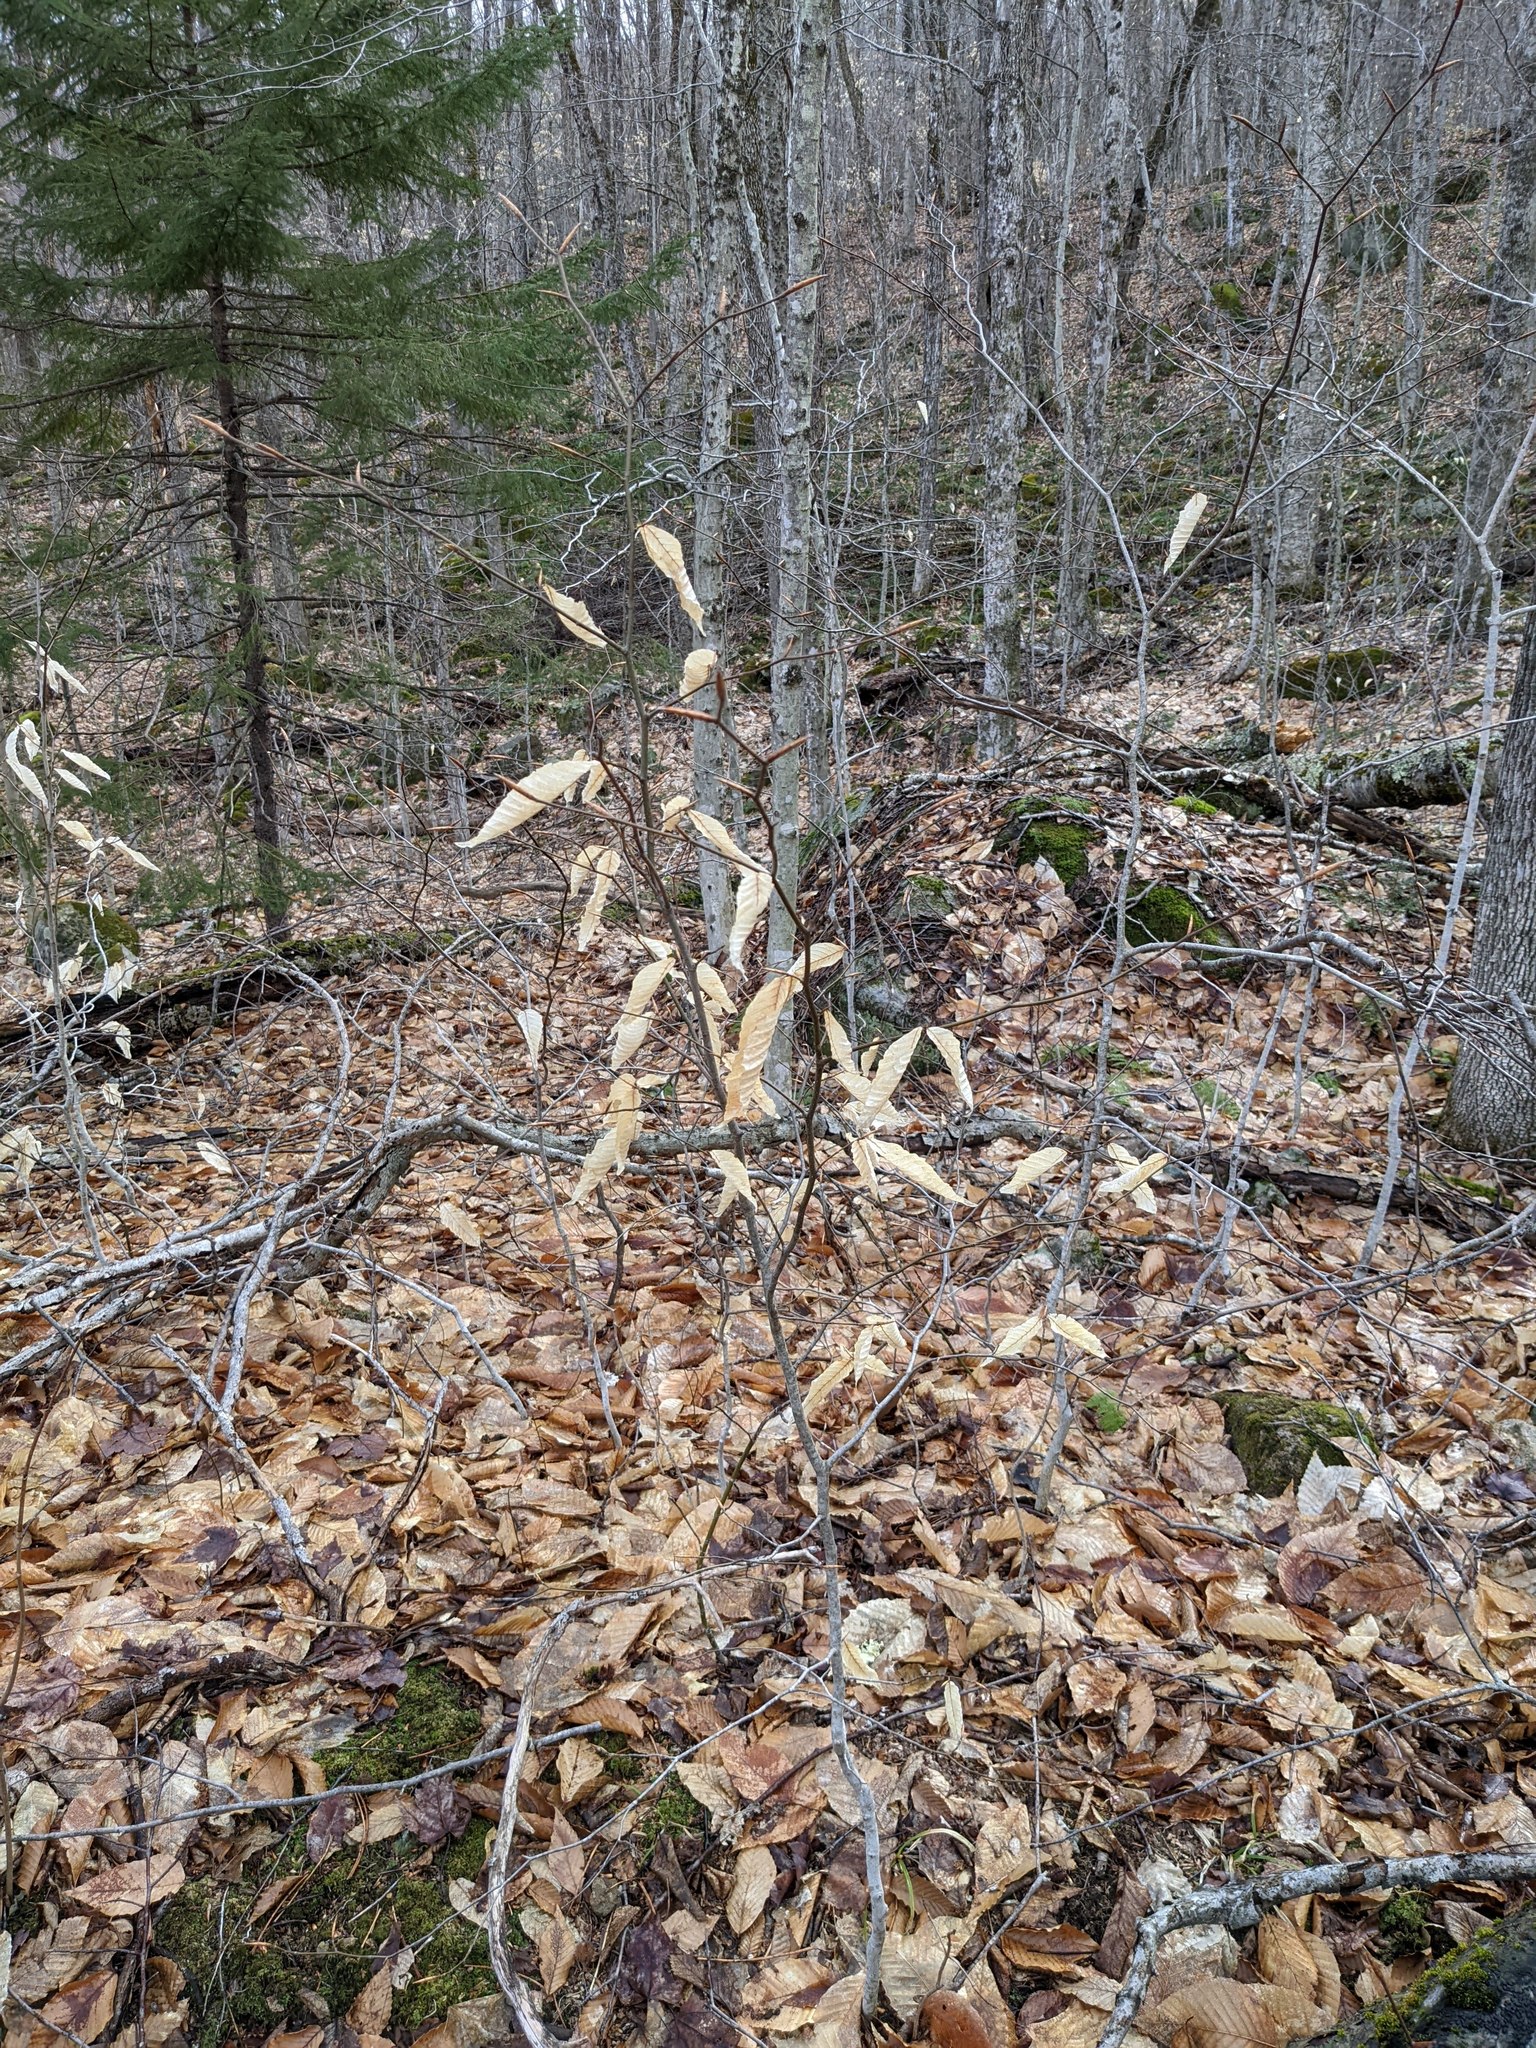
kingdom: Plantae
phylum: Tracheophyta
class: Magnoliopsida
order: Fagales
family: Fagaceae
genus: Fagus
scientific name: Fagus grandifolia
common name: American beech
